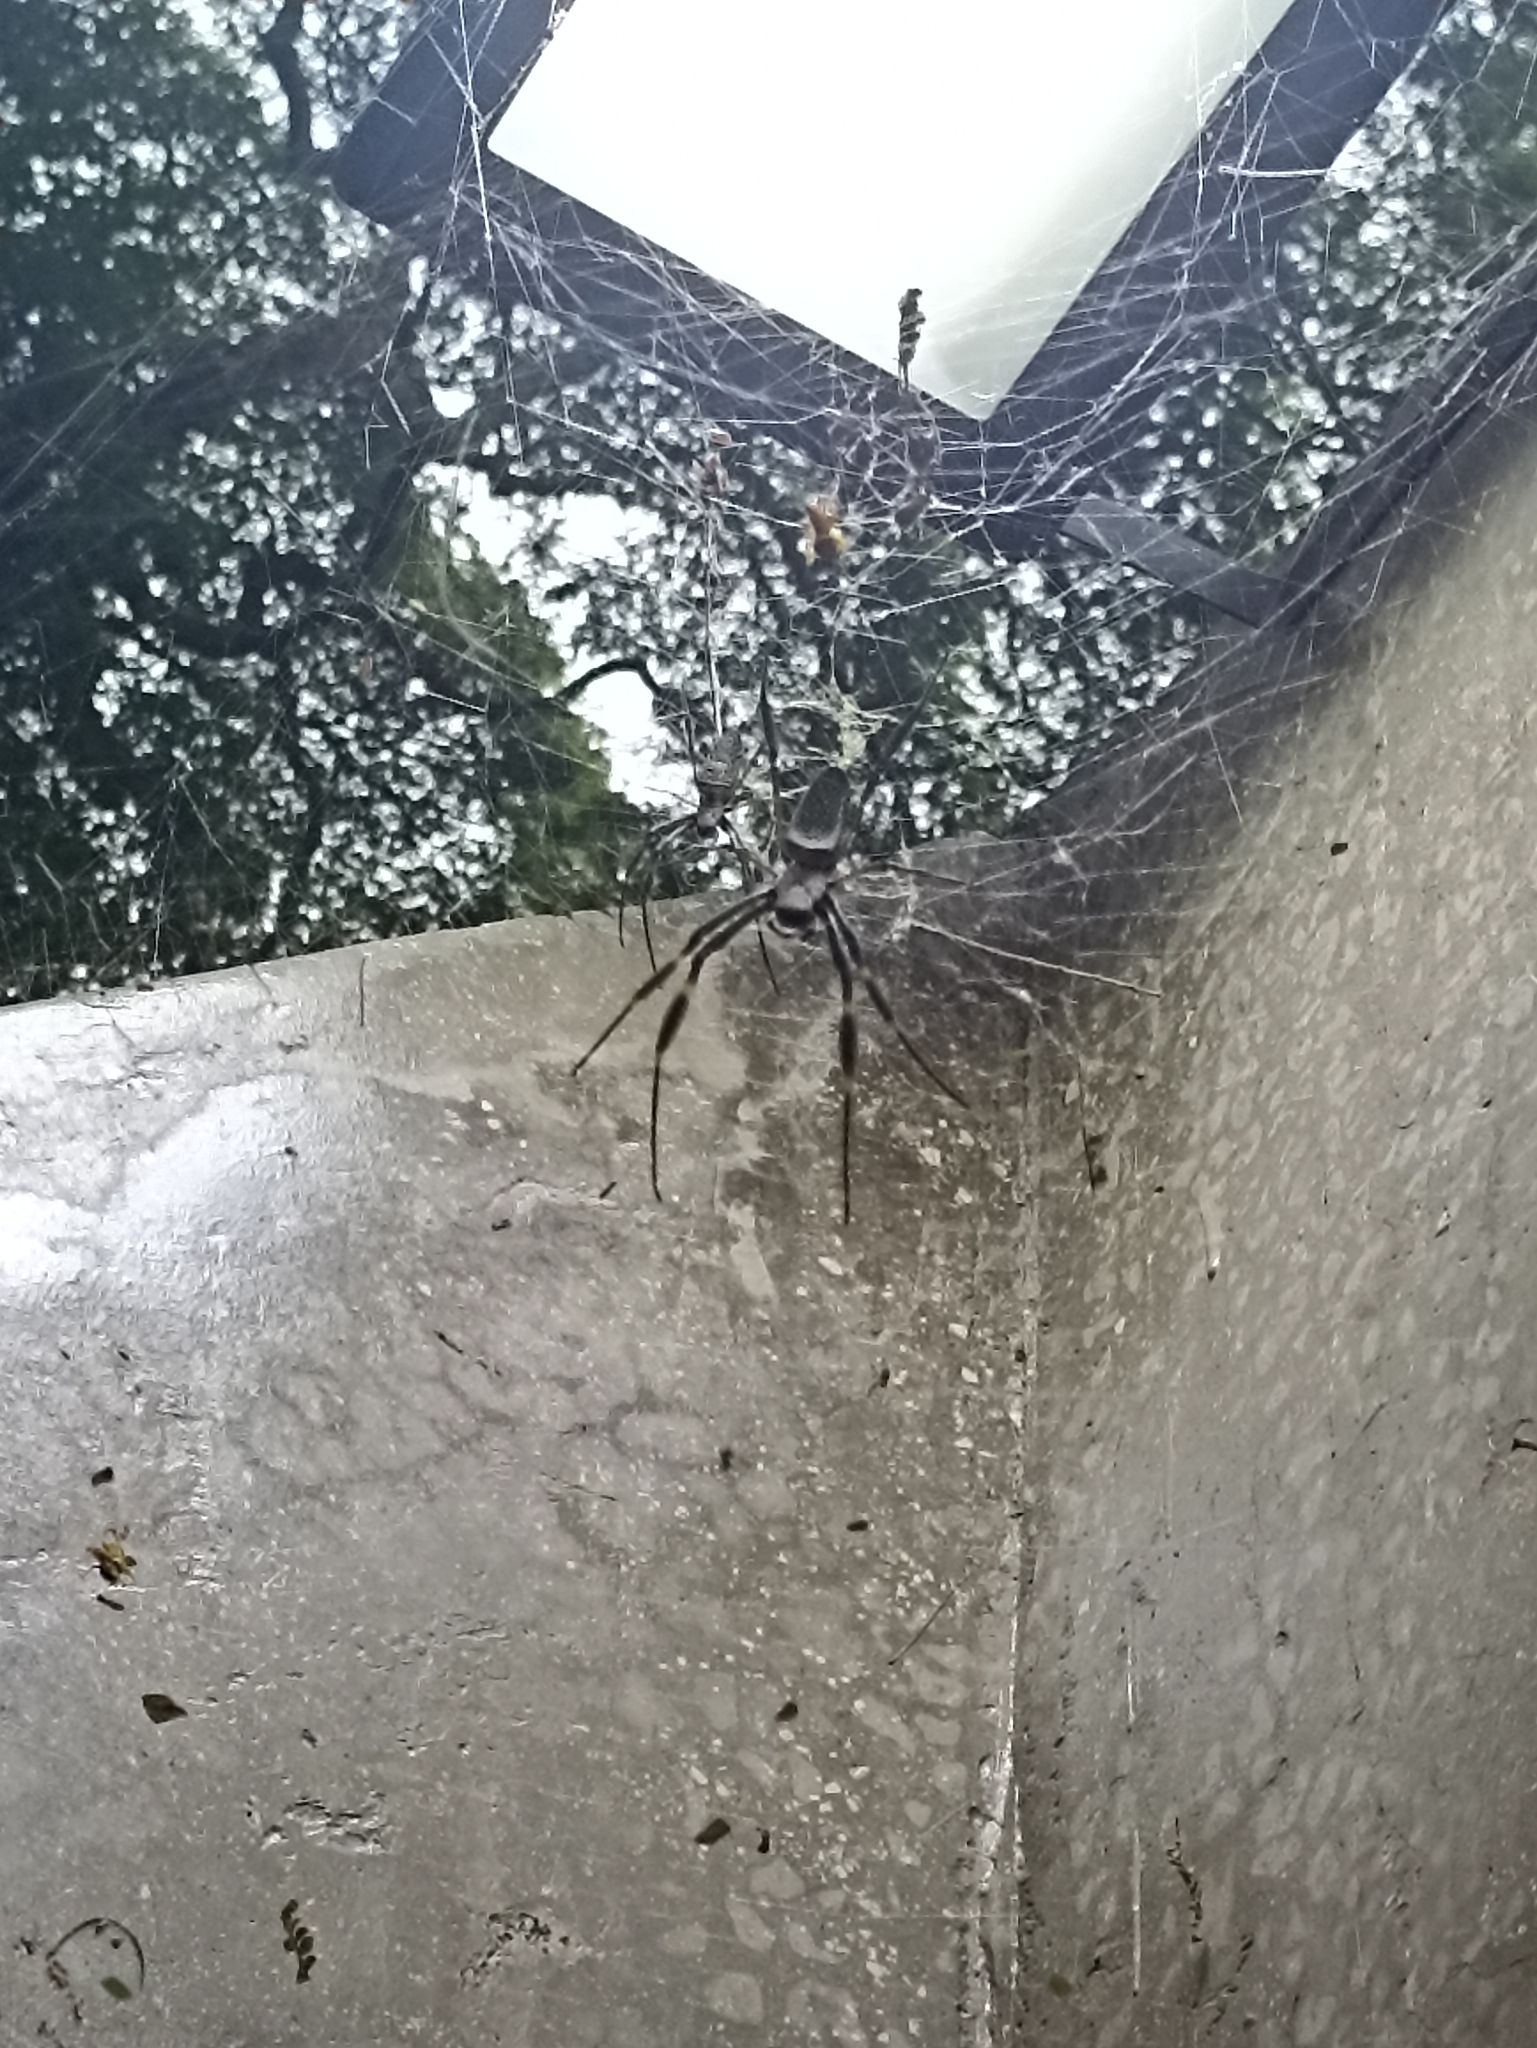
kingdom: Animalia
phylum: Arthropoda
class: Arachnida
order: Araneae
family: Araneidae
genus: Trichonephila
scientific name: Trichonephila clavipes
